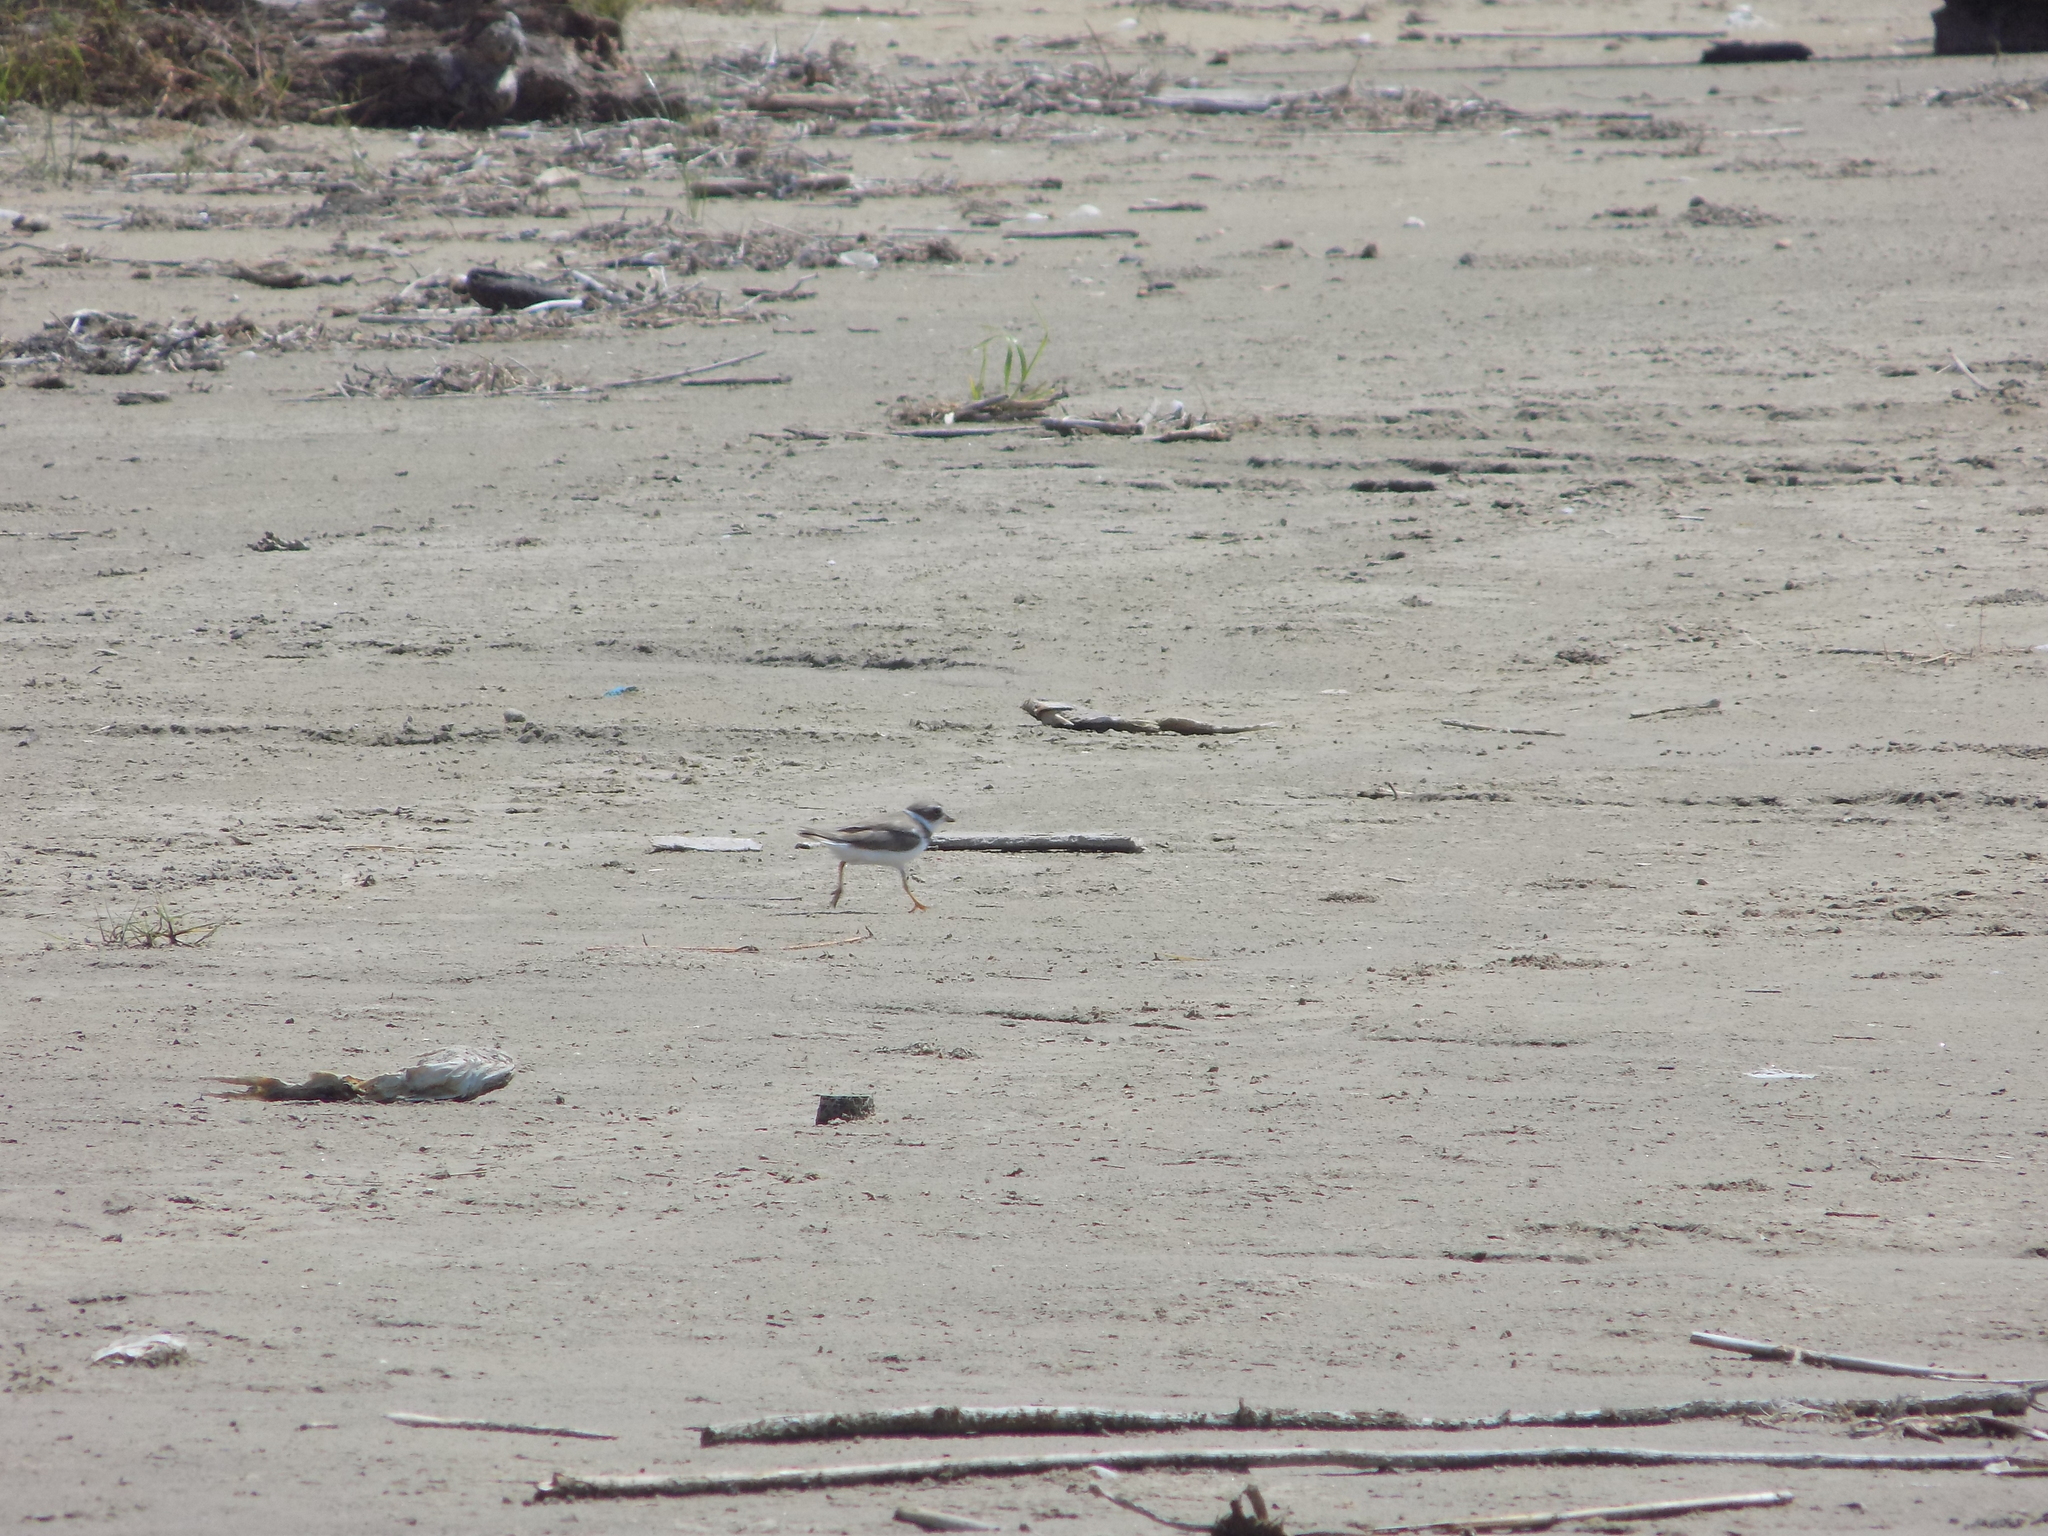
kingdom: Animalia
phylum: Chordata
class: Aves
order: Charadriiformes
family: Charadriidae
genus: Charadrius
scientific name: Charadrius semipalmatus
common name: Semipalmated plover
